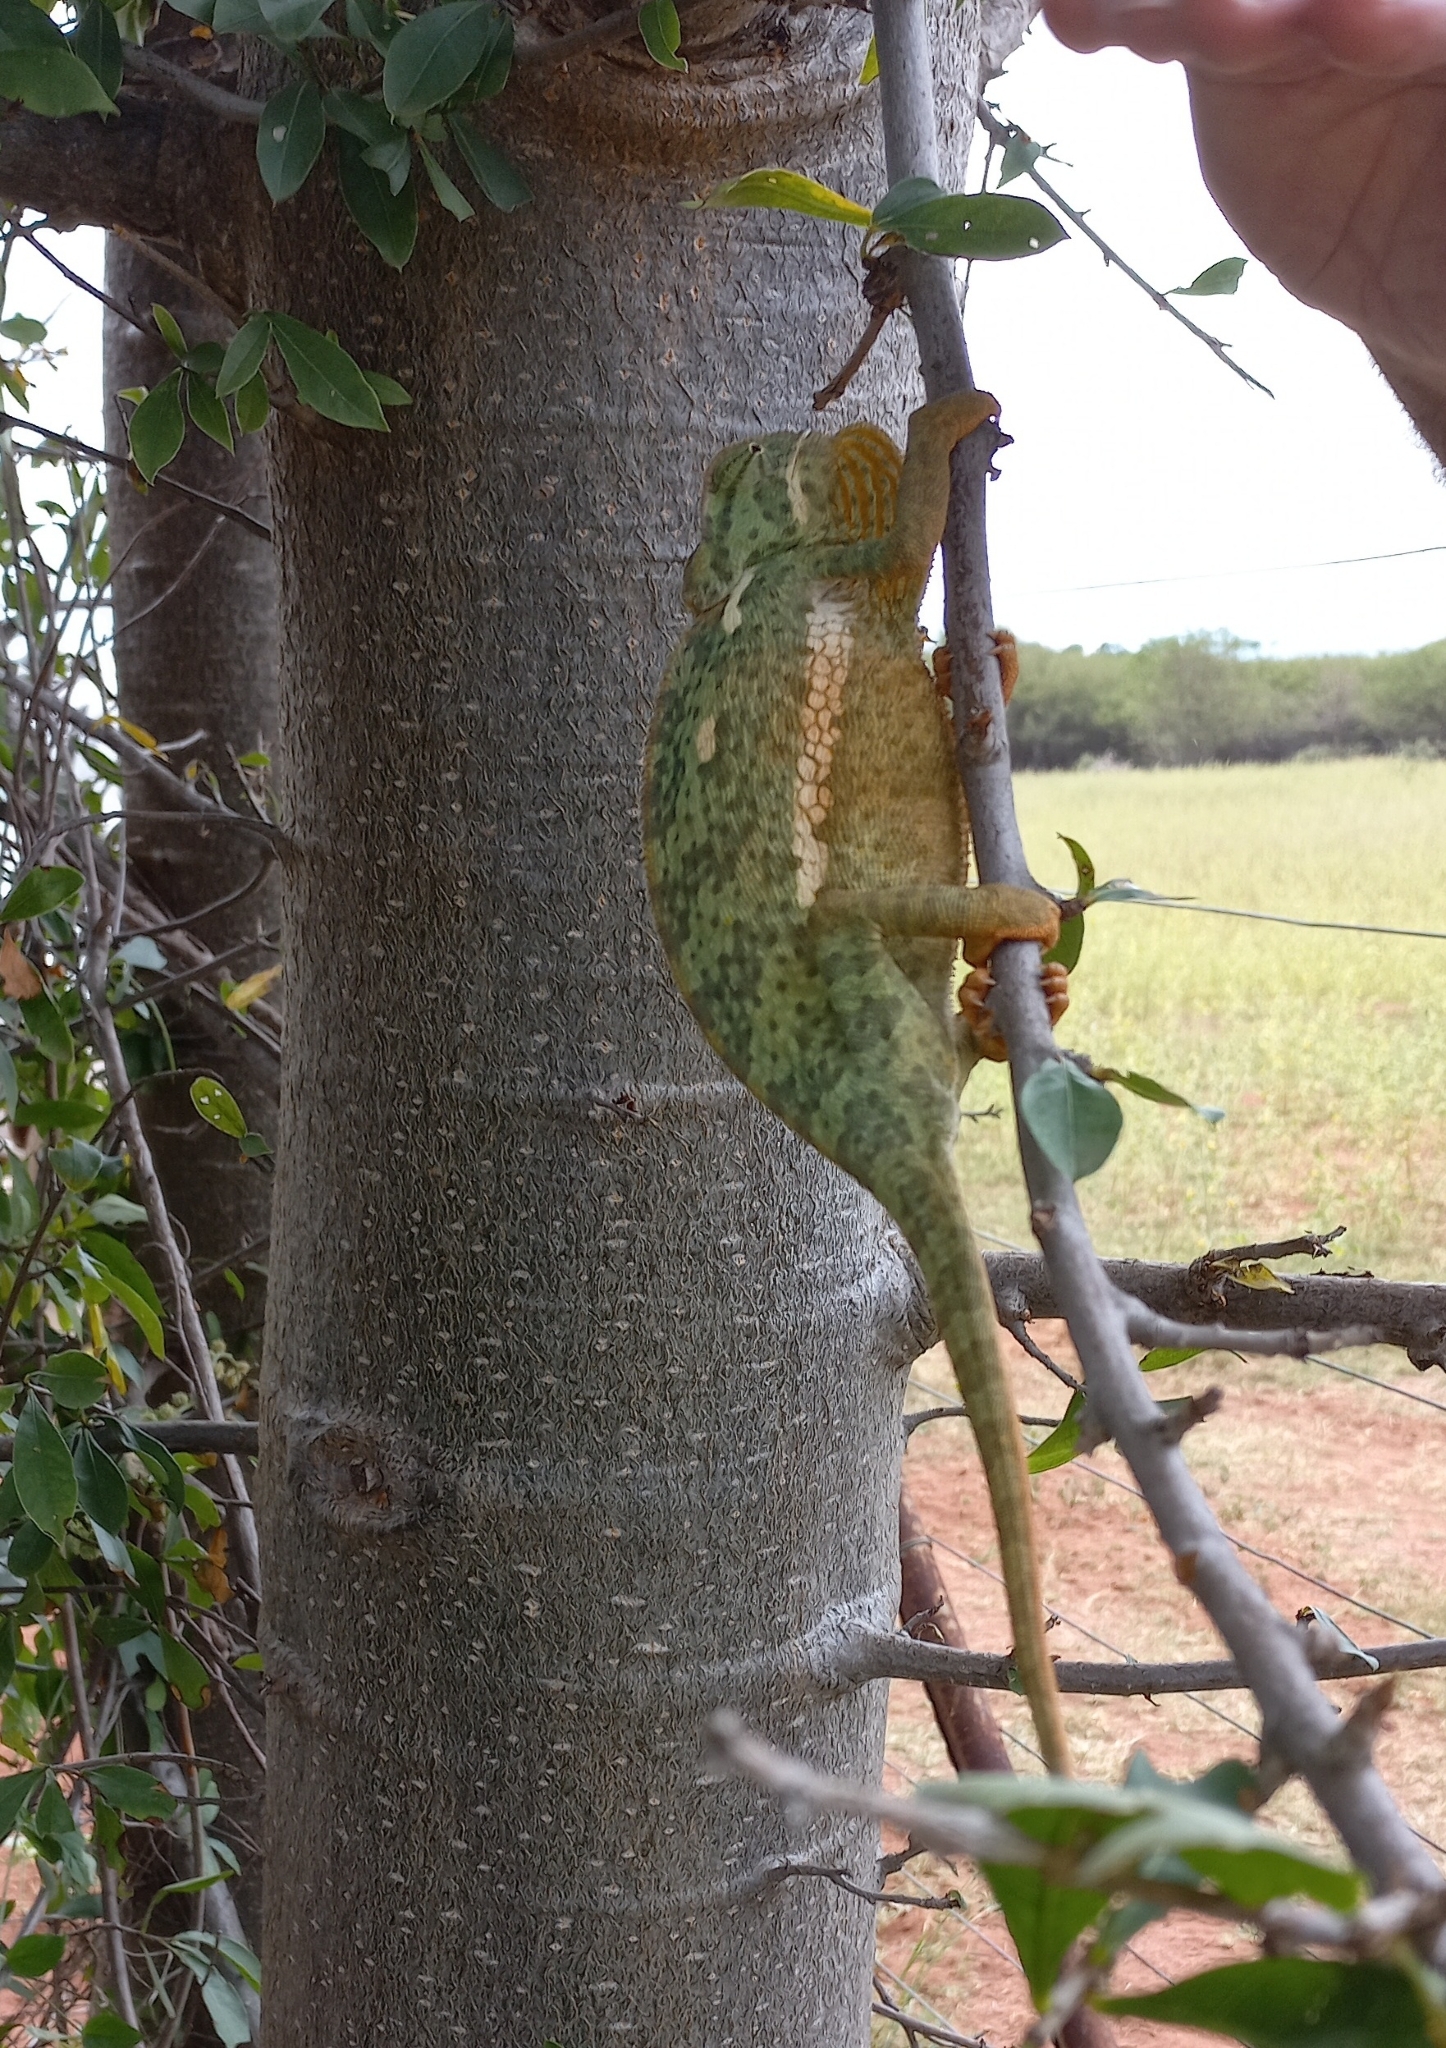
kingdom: Animalia
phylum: Chordata
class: Squamata
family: Chamaeleonidae
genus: Chamaeleo
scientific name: Chamaeleo dilepis
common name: Flapneck chameleon
